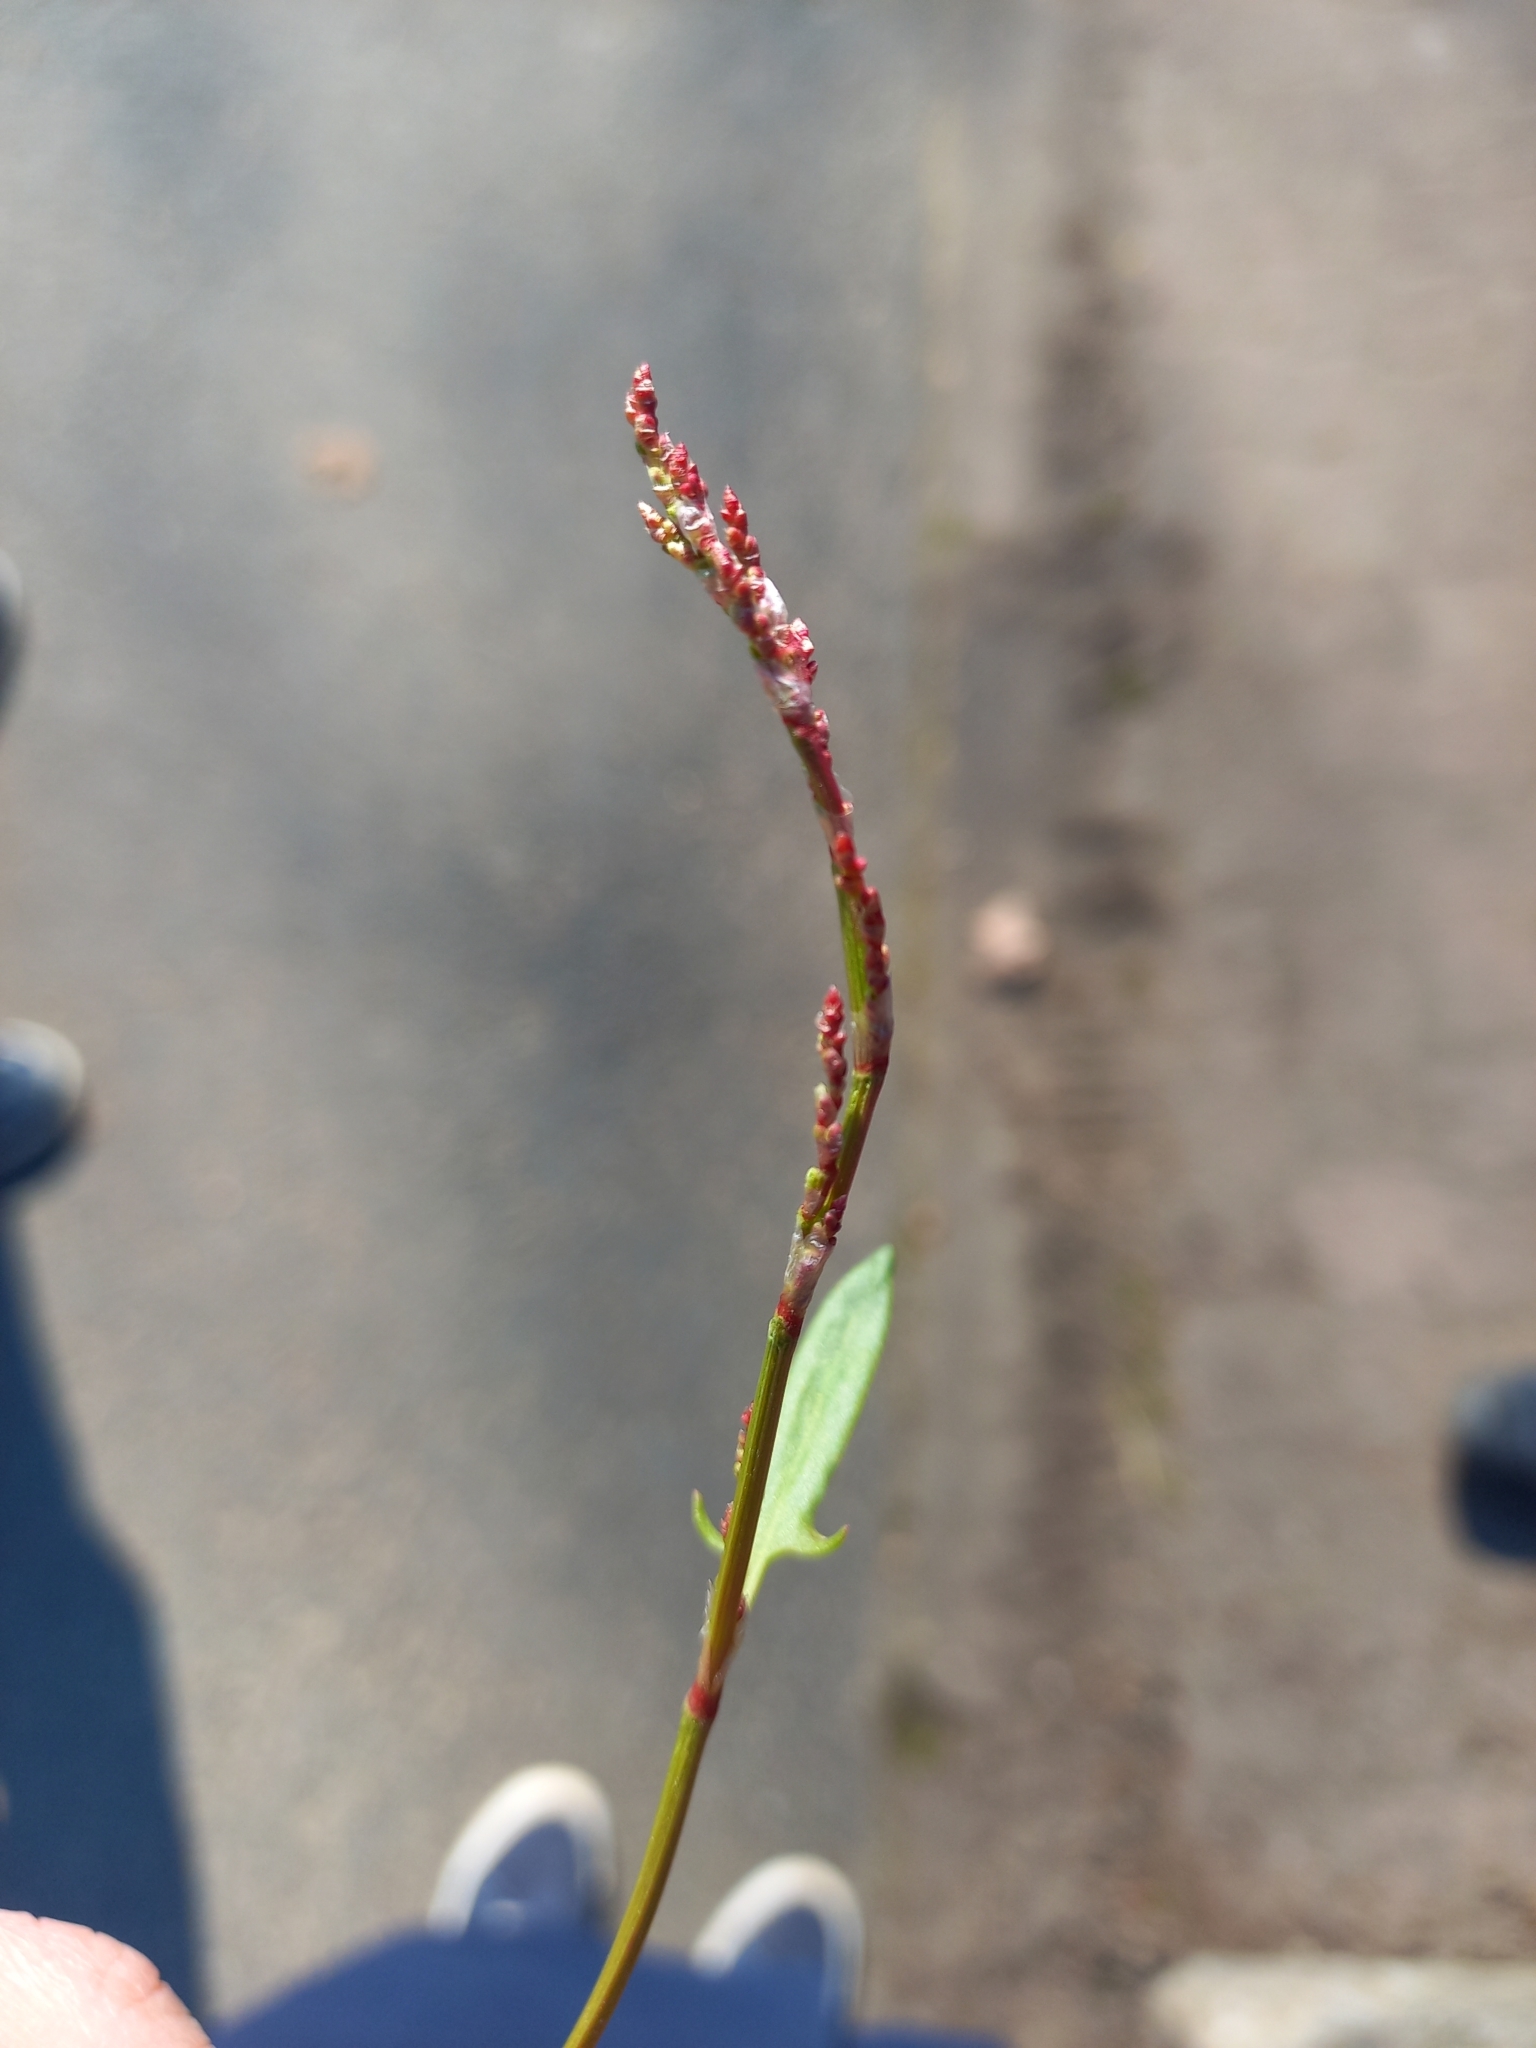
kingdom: Plantae
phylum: Tracheophyta
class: Magnoliopsida
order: Caryophyllales
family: Polygonaceae
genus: Rumex
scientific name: Rumex acetosella
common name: Common sheep sorrel
